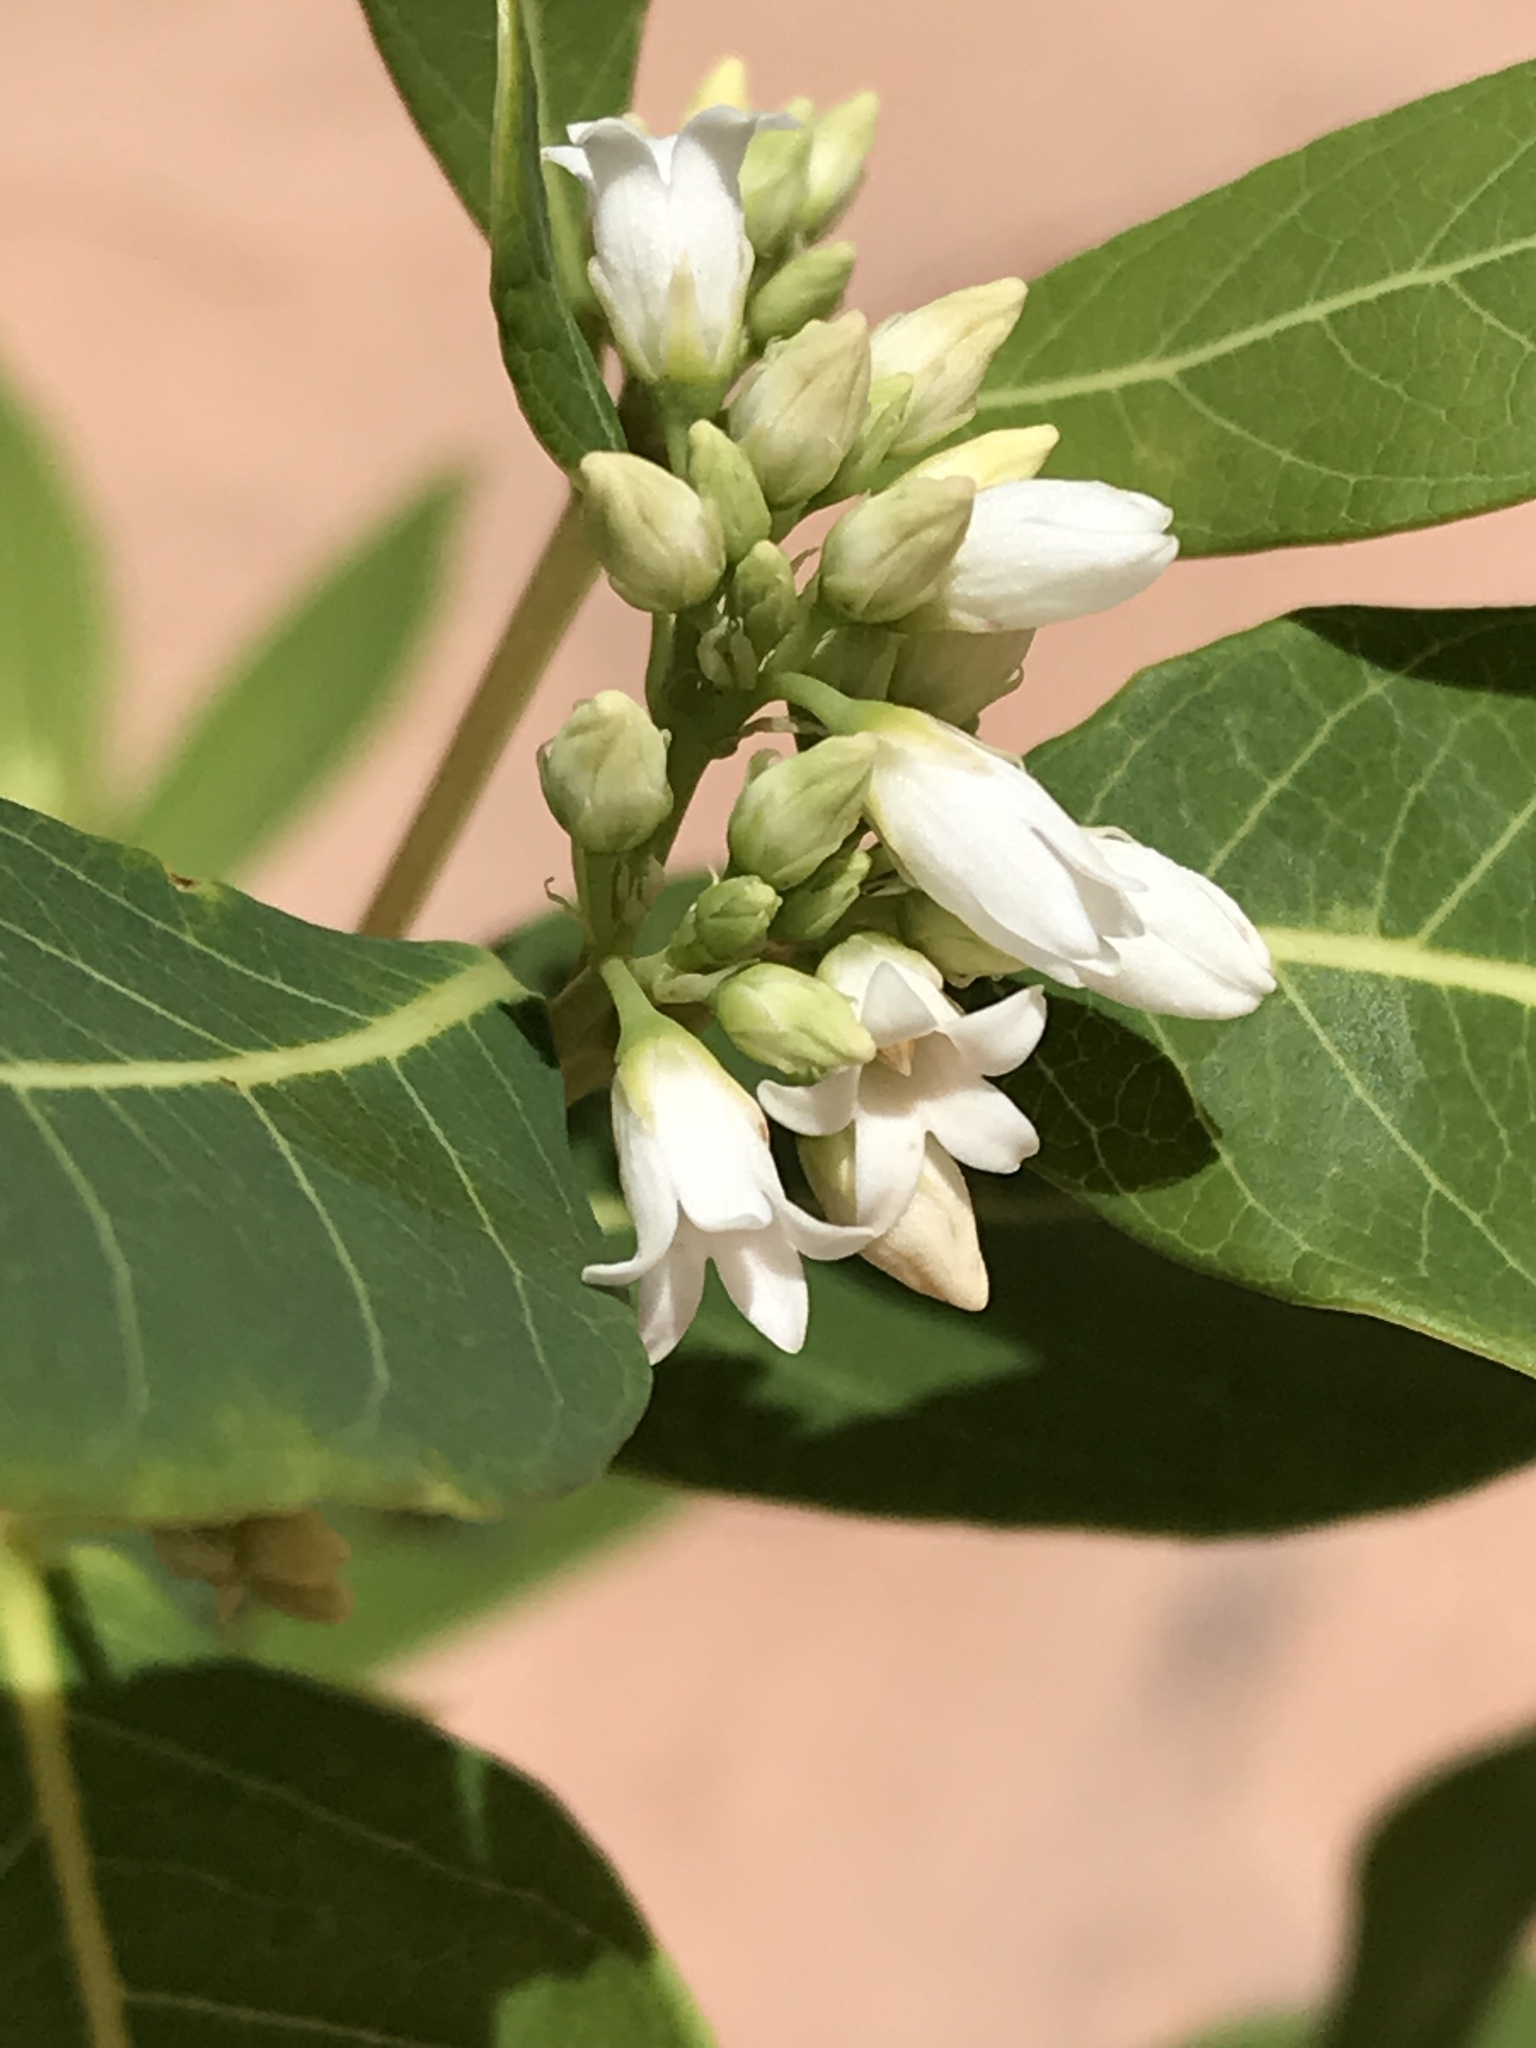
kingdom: Plantae
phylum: Tracheophyta
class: Magnoliopsida
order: Gentianales
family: Apocynaceae
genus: Apocynum
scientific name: Apocynum cannabinum
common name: Hemp dogbane
